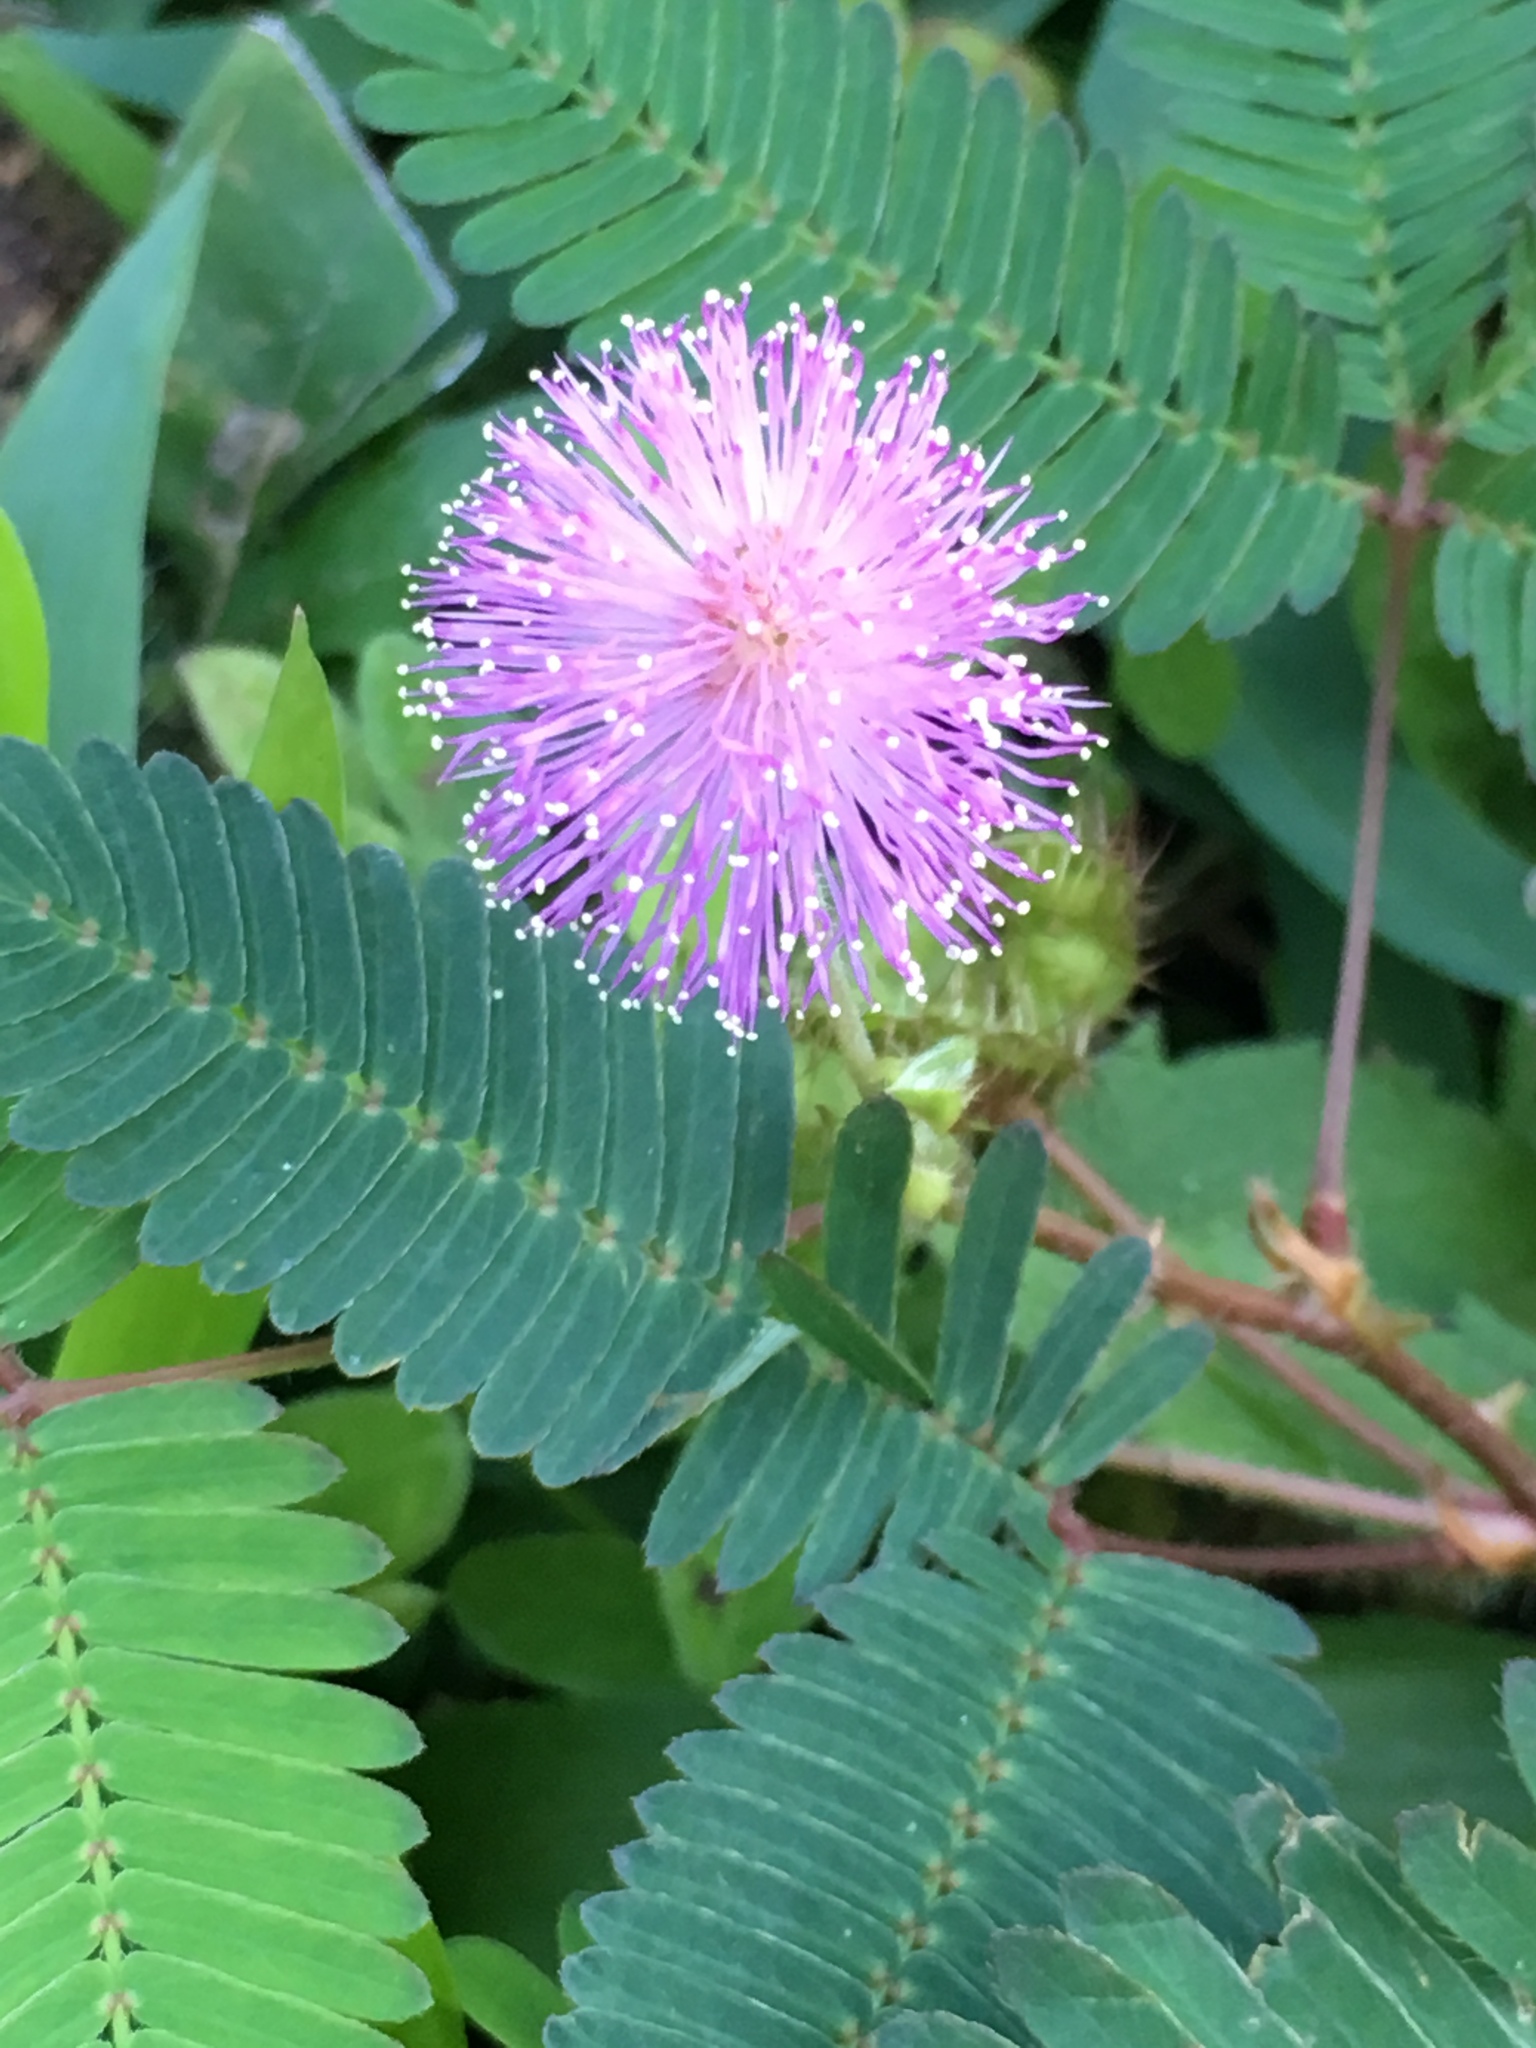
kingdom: Plantae
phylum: Tracheophyta
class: Magnoliopsida
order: Fabales
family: Fabaceae
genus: Mimosa
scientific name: Mimosa pudica
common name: Sensitive plant
